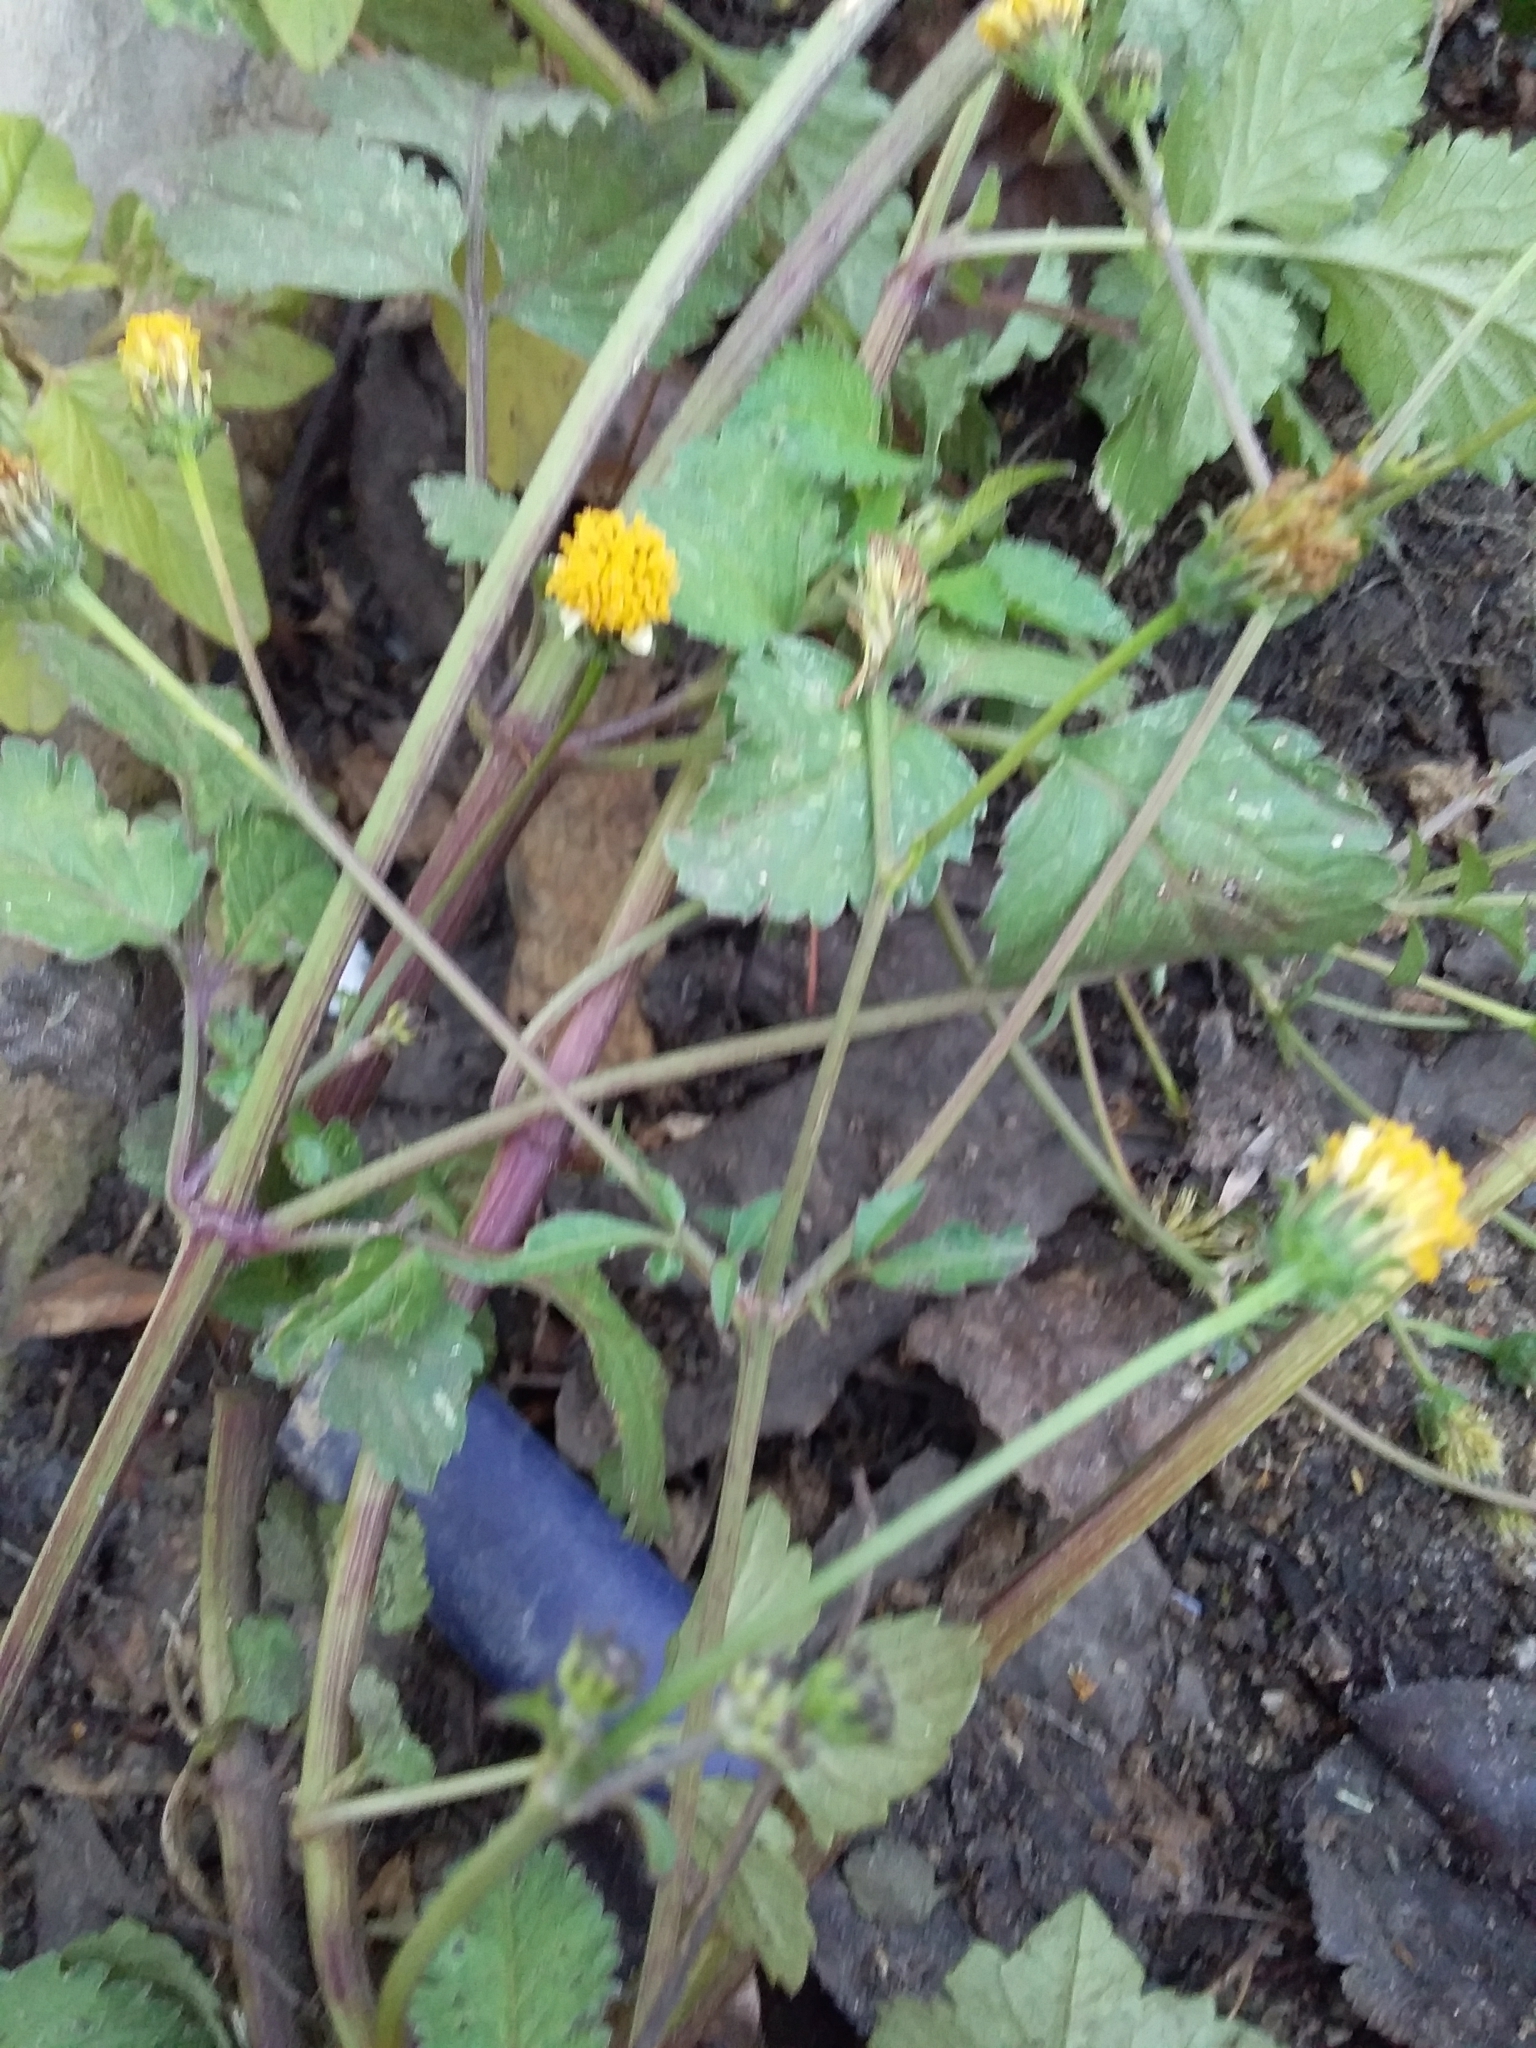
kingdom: Plantae
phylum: Tracheophyta
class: Magnoliopsida
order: Asterales
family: Asteraceae
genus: Bidens
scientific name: Bidens pilosa
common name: Black-jack
